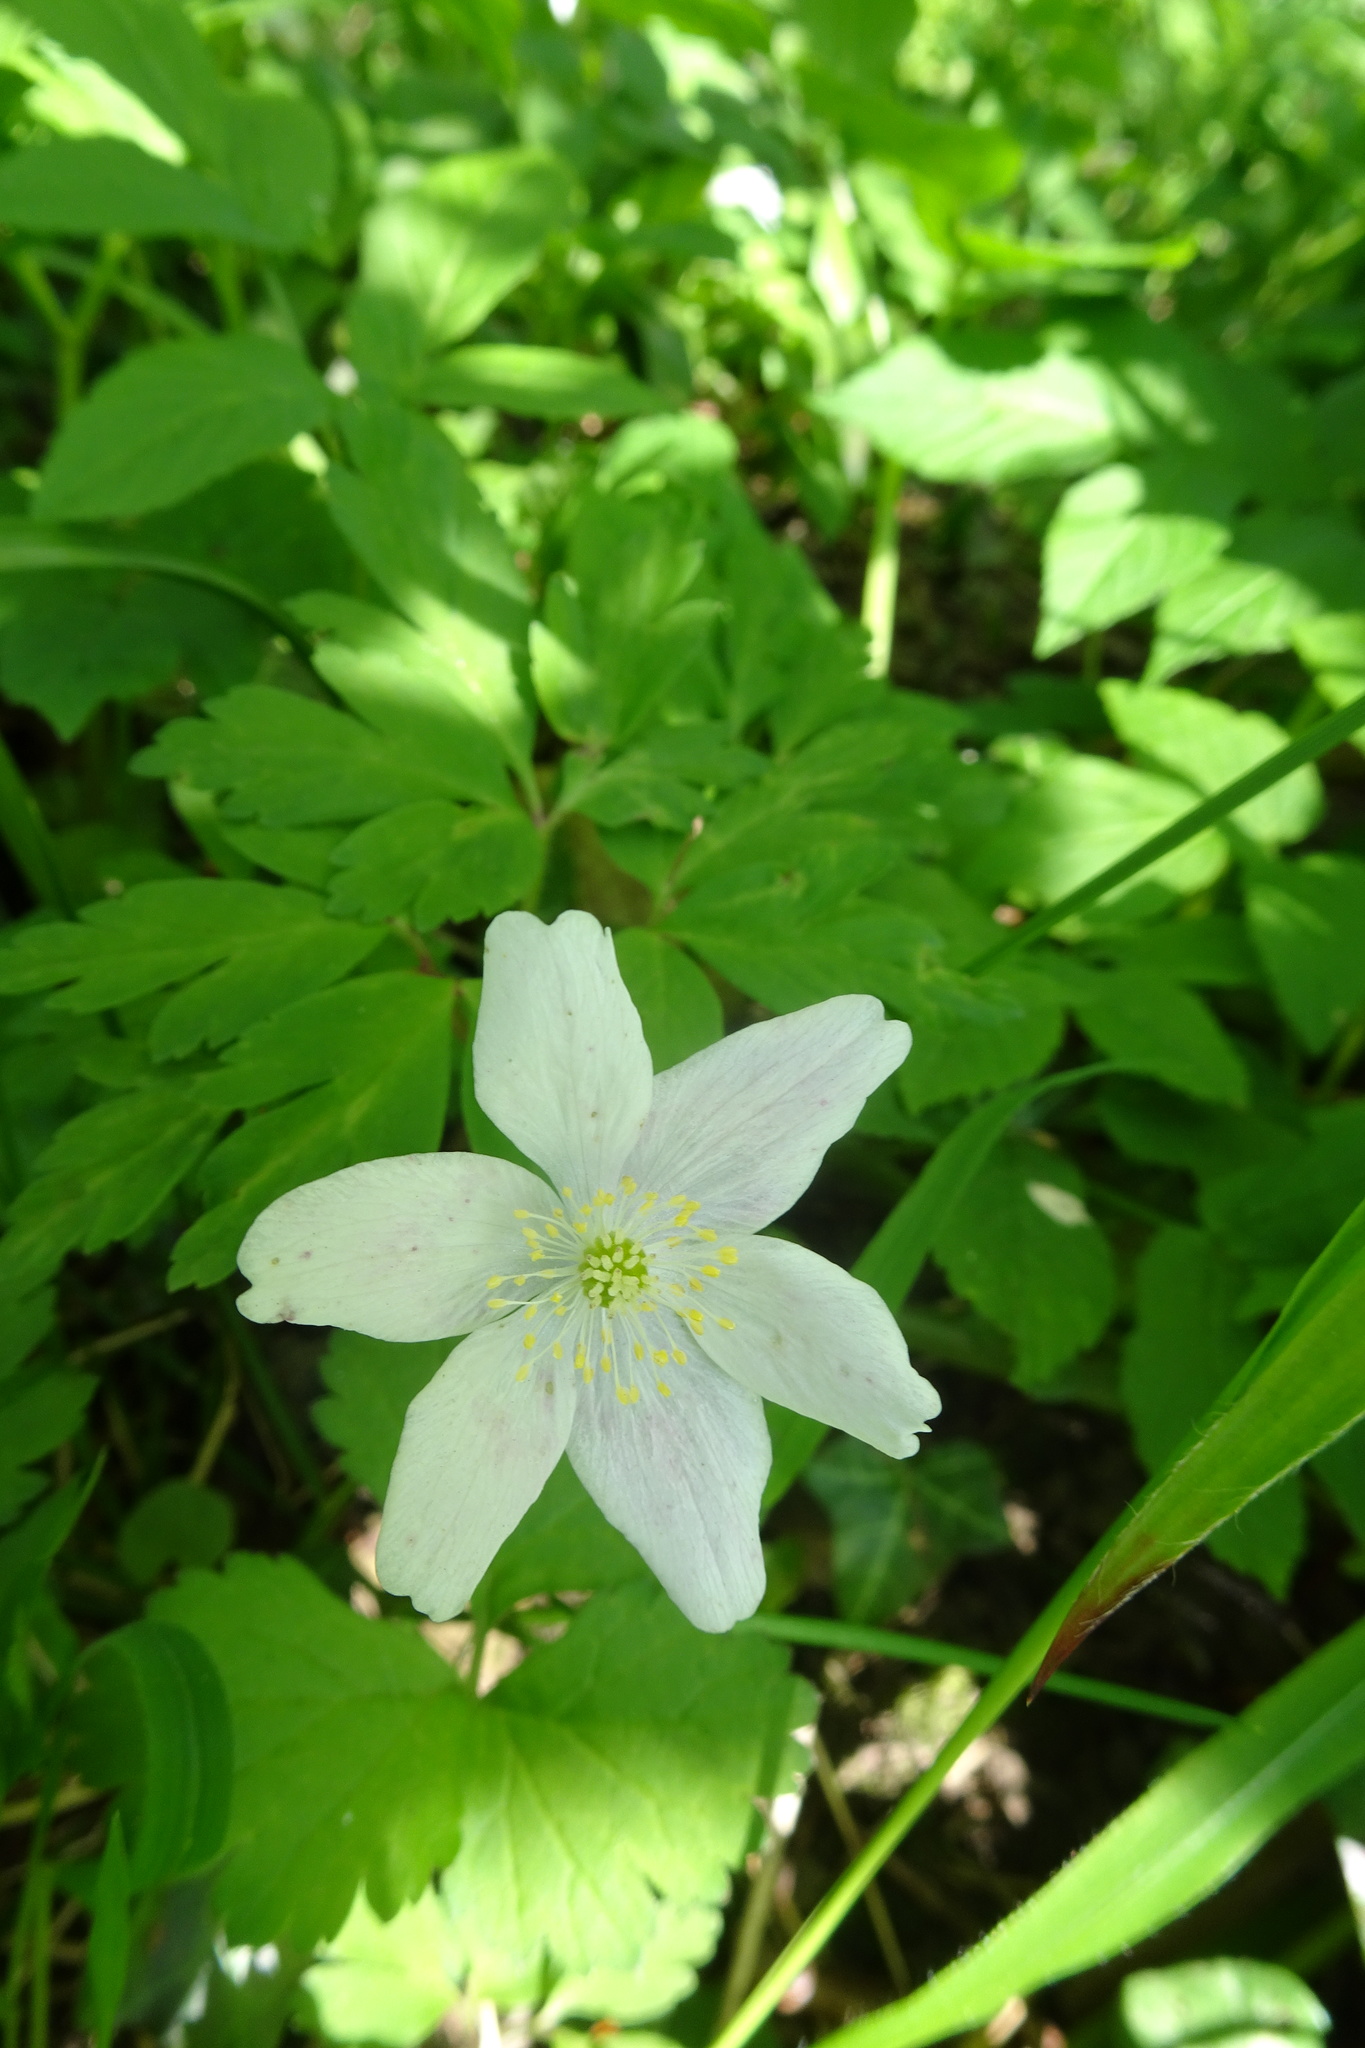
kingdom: Plantae
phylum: Tracheophyta
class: Magnoliopsida
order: Ranunculales
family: Ranunculaceae
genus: Anemone
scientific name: Anemone nemorosa
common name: Wood anemone
